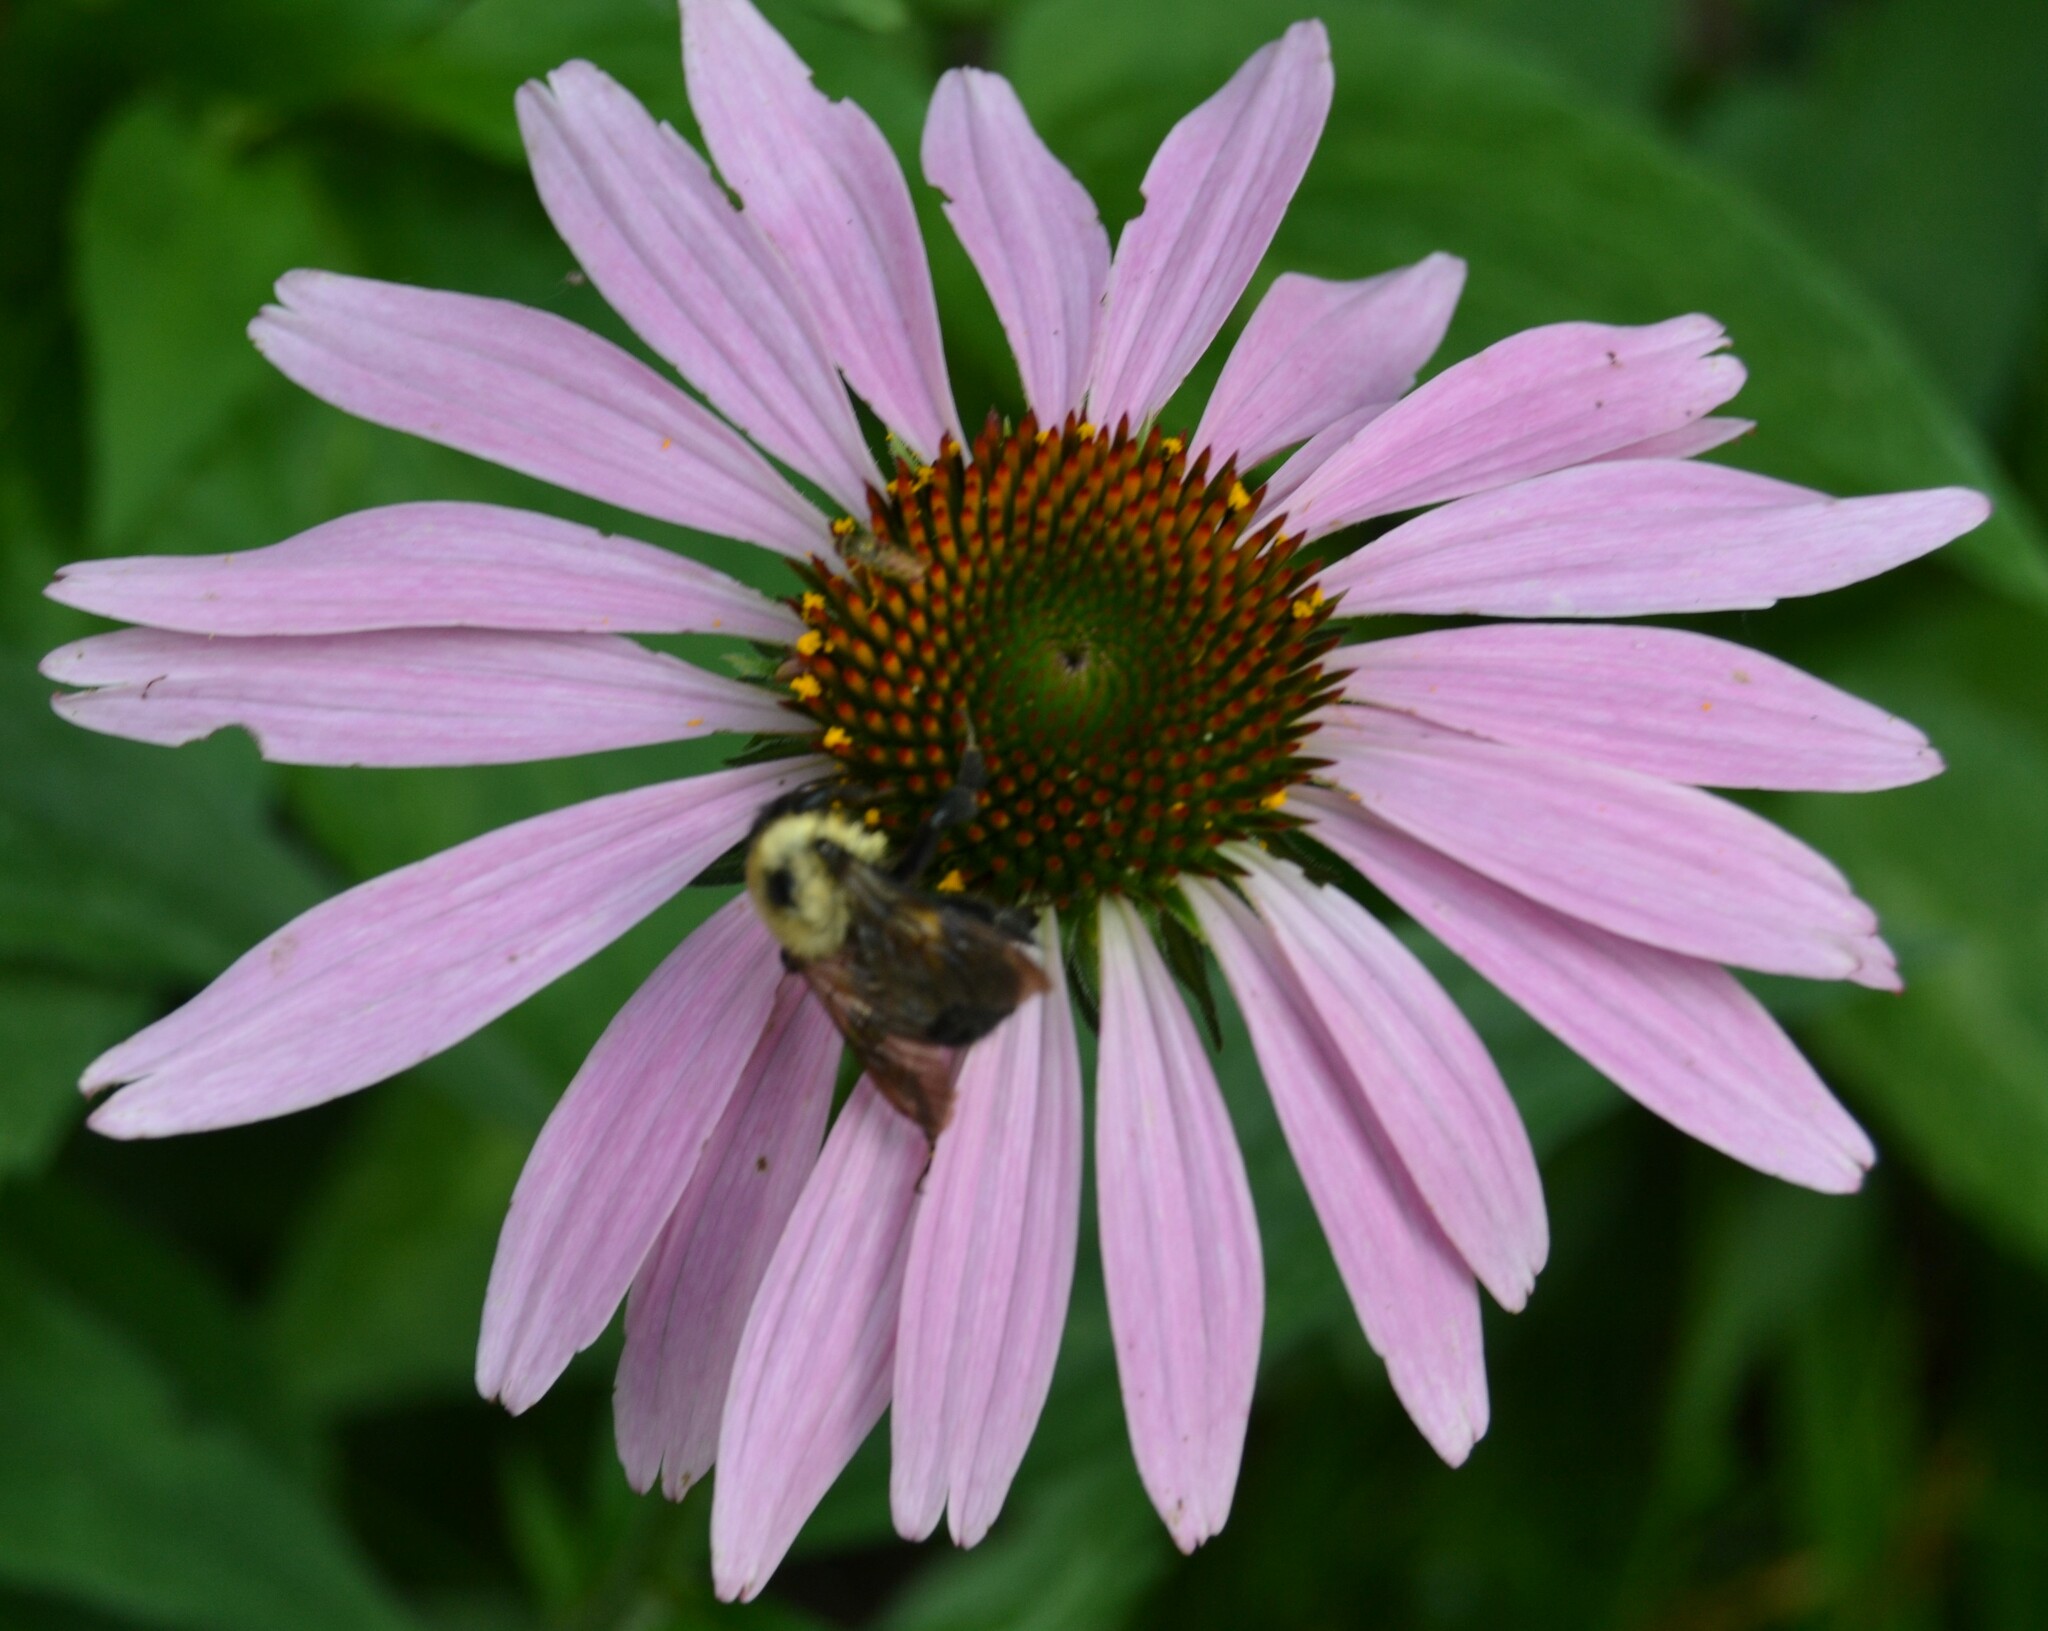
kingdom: Animalia
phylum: Arthropoda
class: Insecta
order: Hymenoptera
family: Apidae
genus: Bombus
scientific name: Bombus griseocollis
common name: Brown-belted bumble bee
